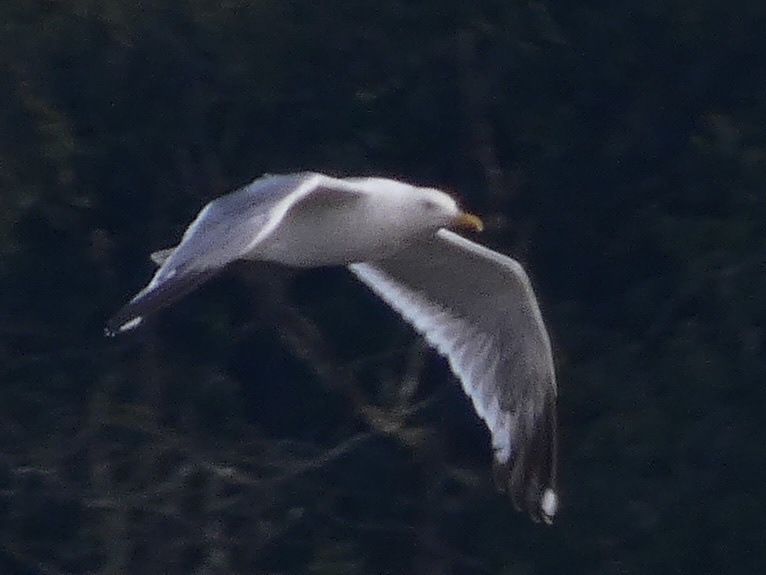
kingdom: Animalia
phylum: Chordata
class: Aves
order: Charadriiformes
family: Laridae
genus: Larus
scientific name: Larus michahellis
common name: Yellow-legged gull
